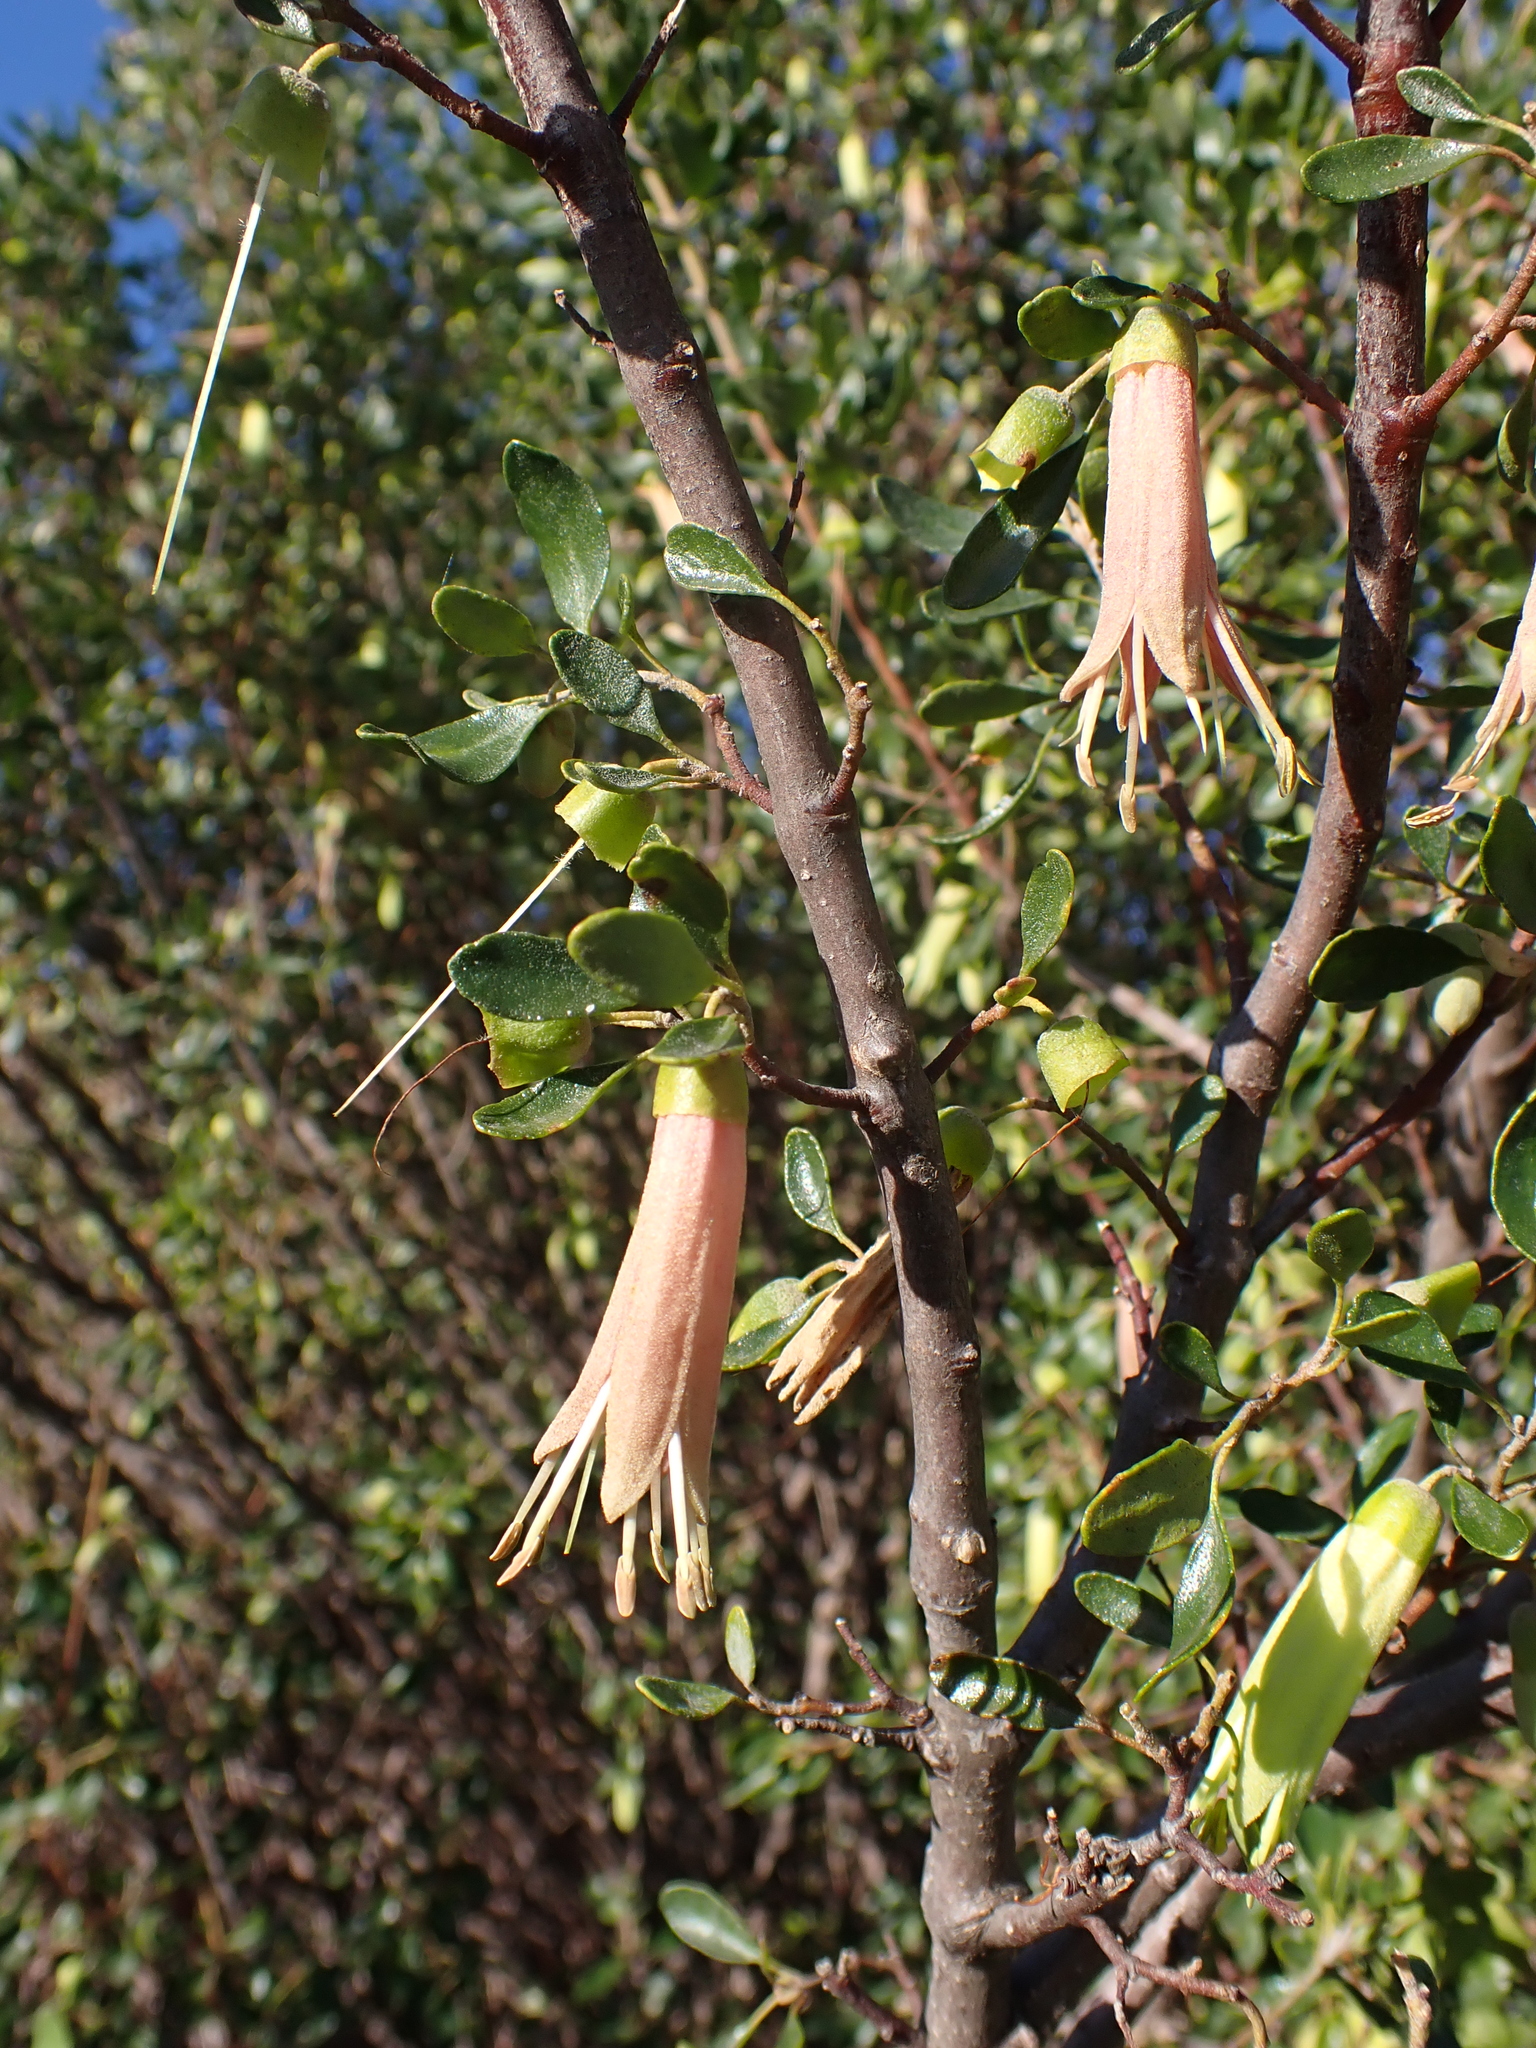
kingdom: Plantae
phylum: Tracheophyta
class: Magnoliopsida
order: Sapindales
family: Rutaceae
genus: Correa
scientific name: Correa glabra
